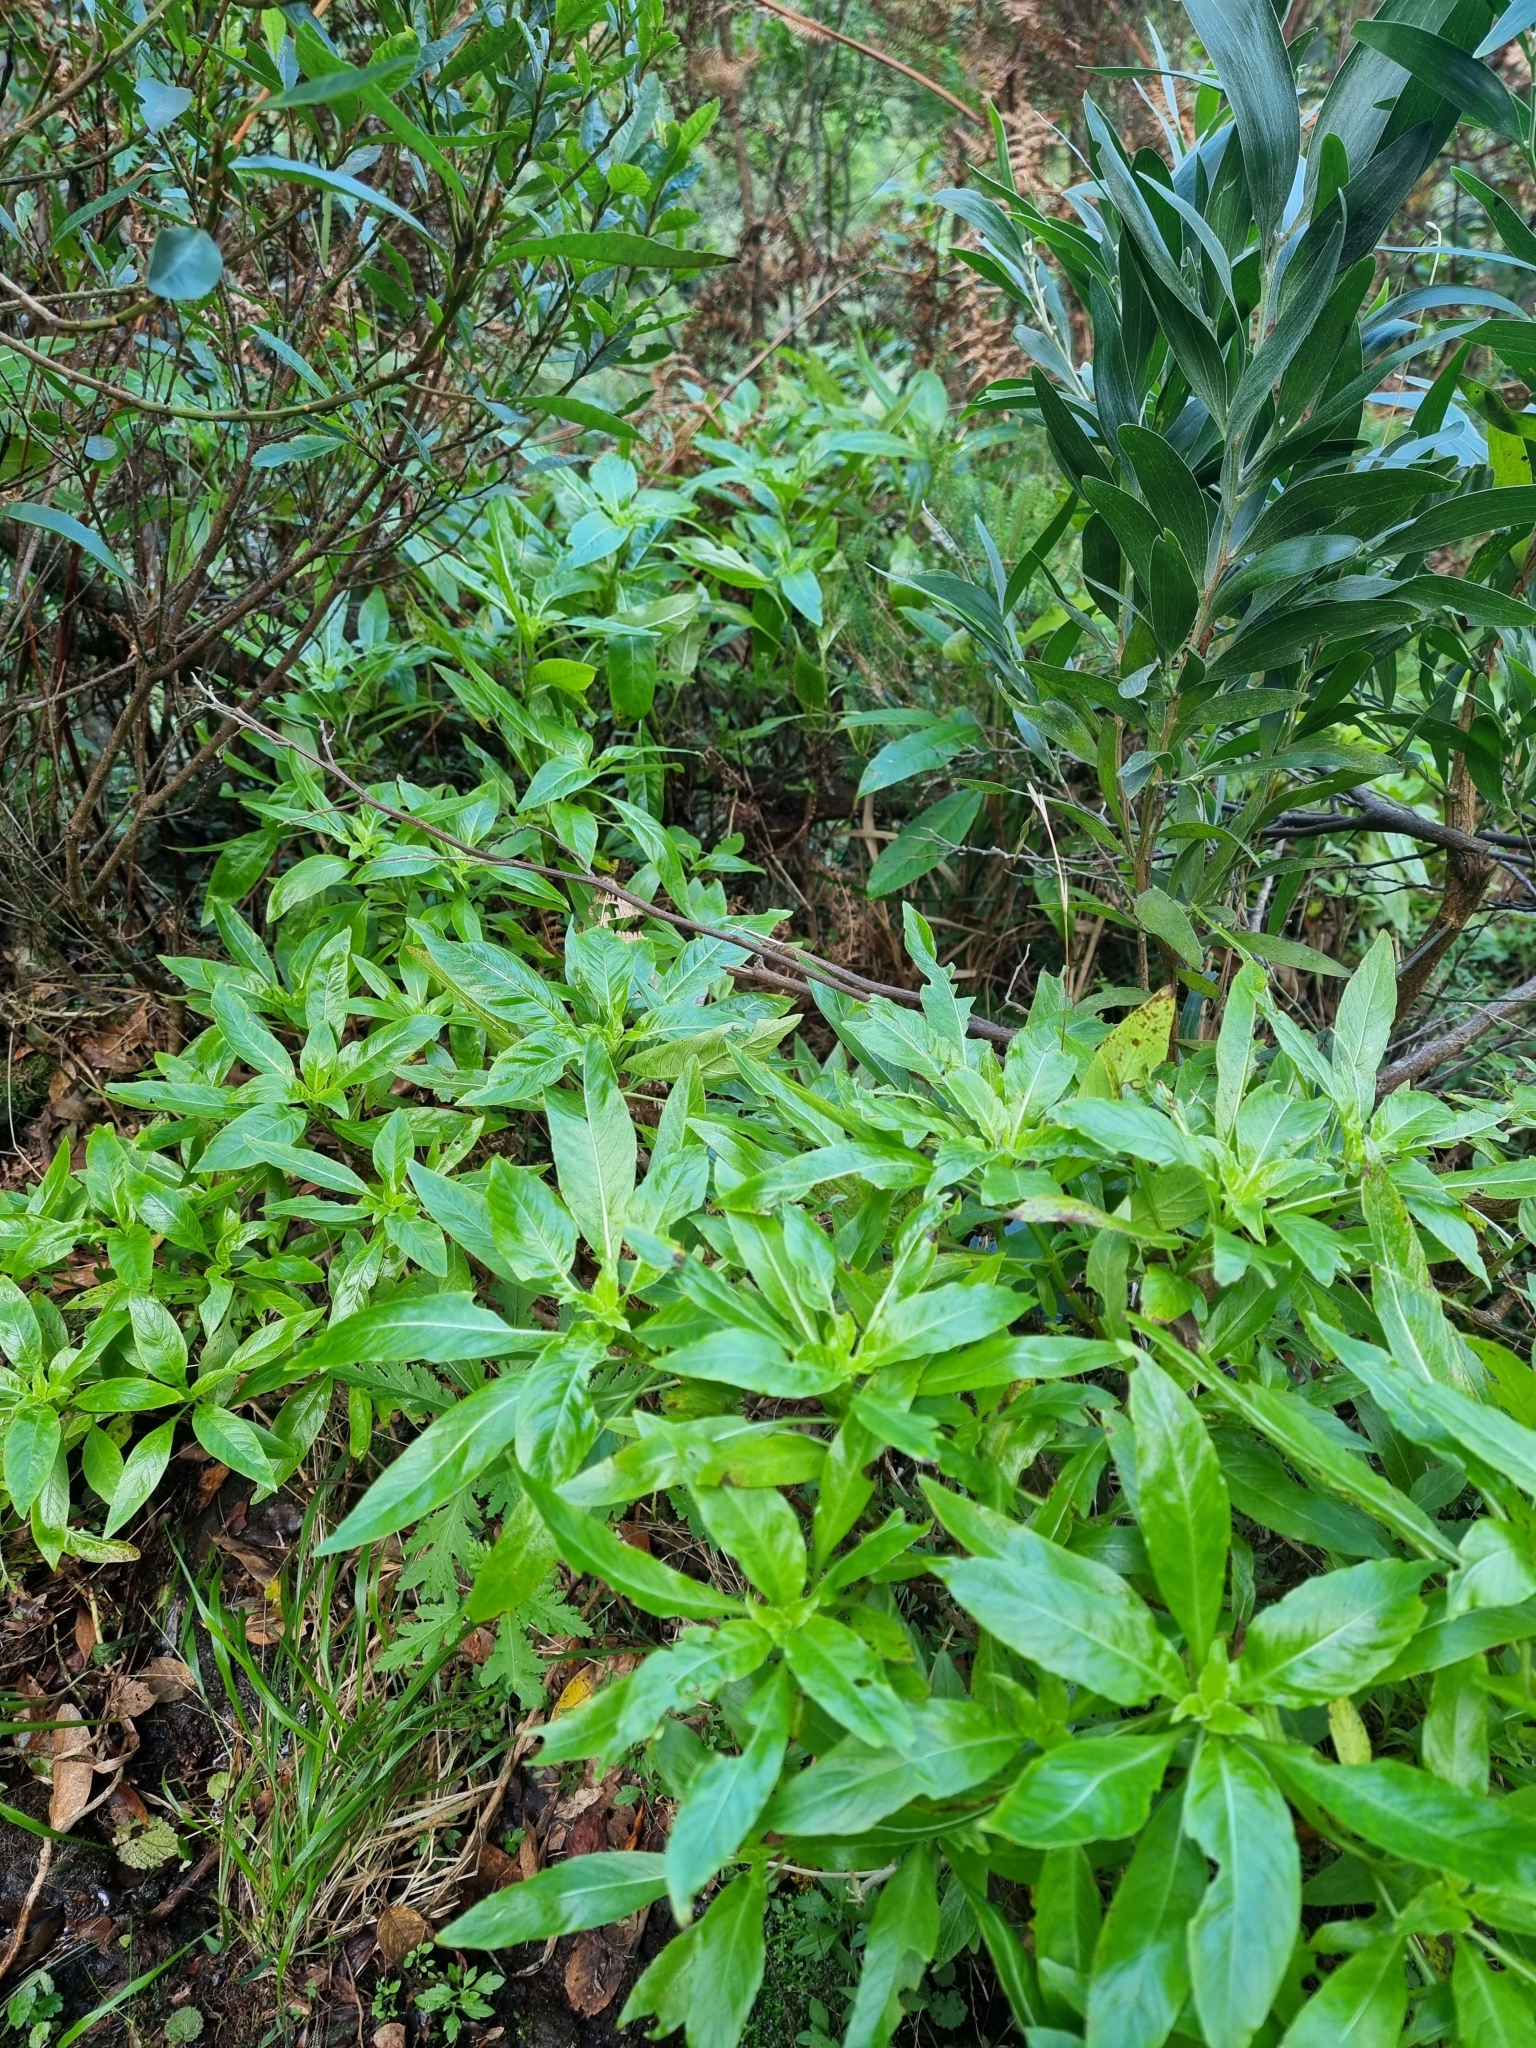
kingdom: Plantae
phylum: Tracheophyta
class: Magnoliopsida
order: Gentianales
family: Rubiaceae
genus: Phyllis
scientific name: Phyllis nobla
